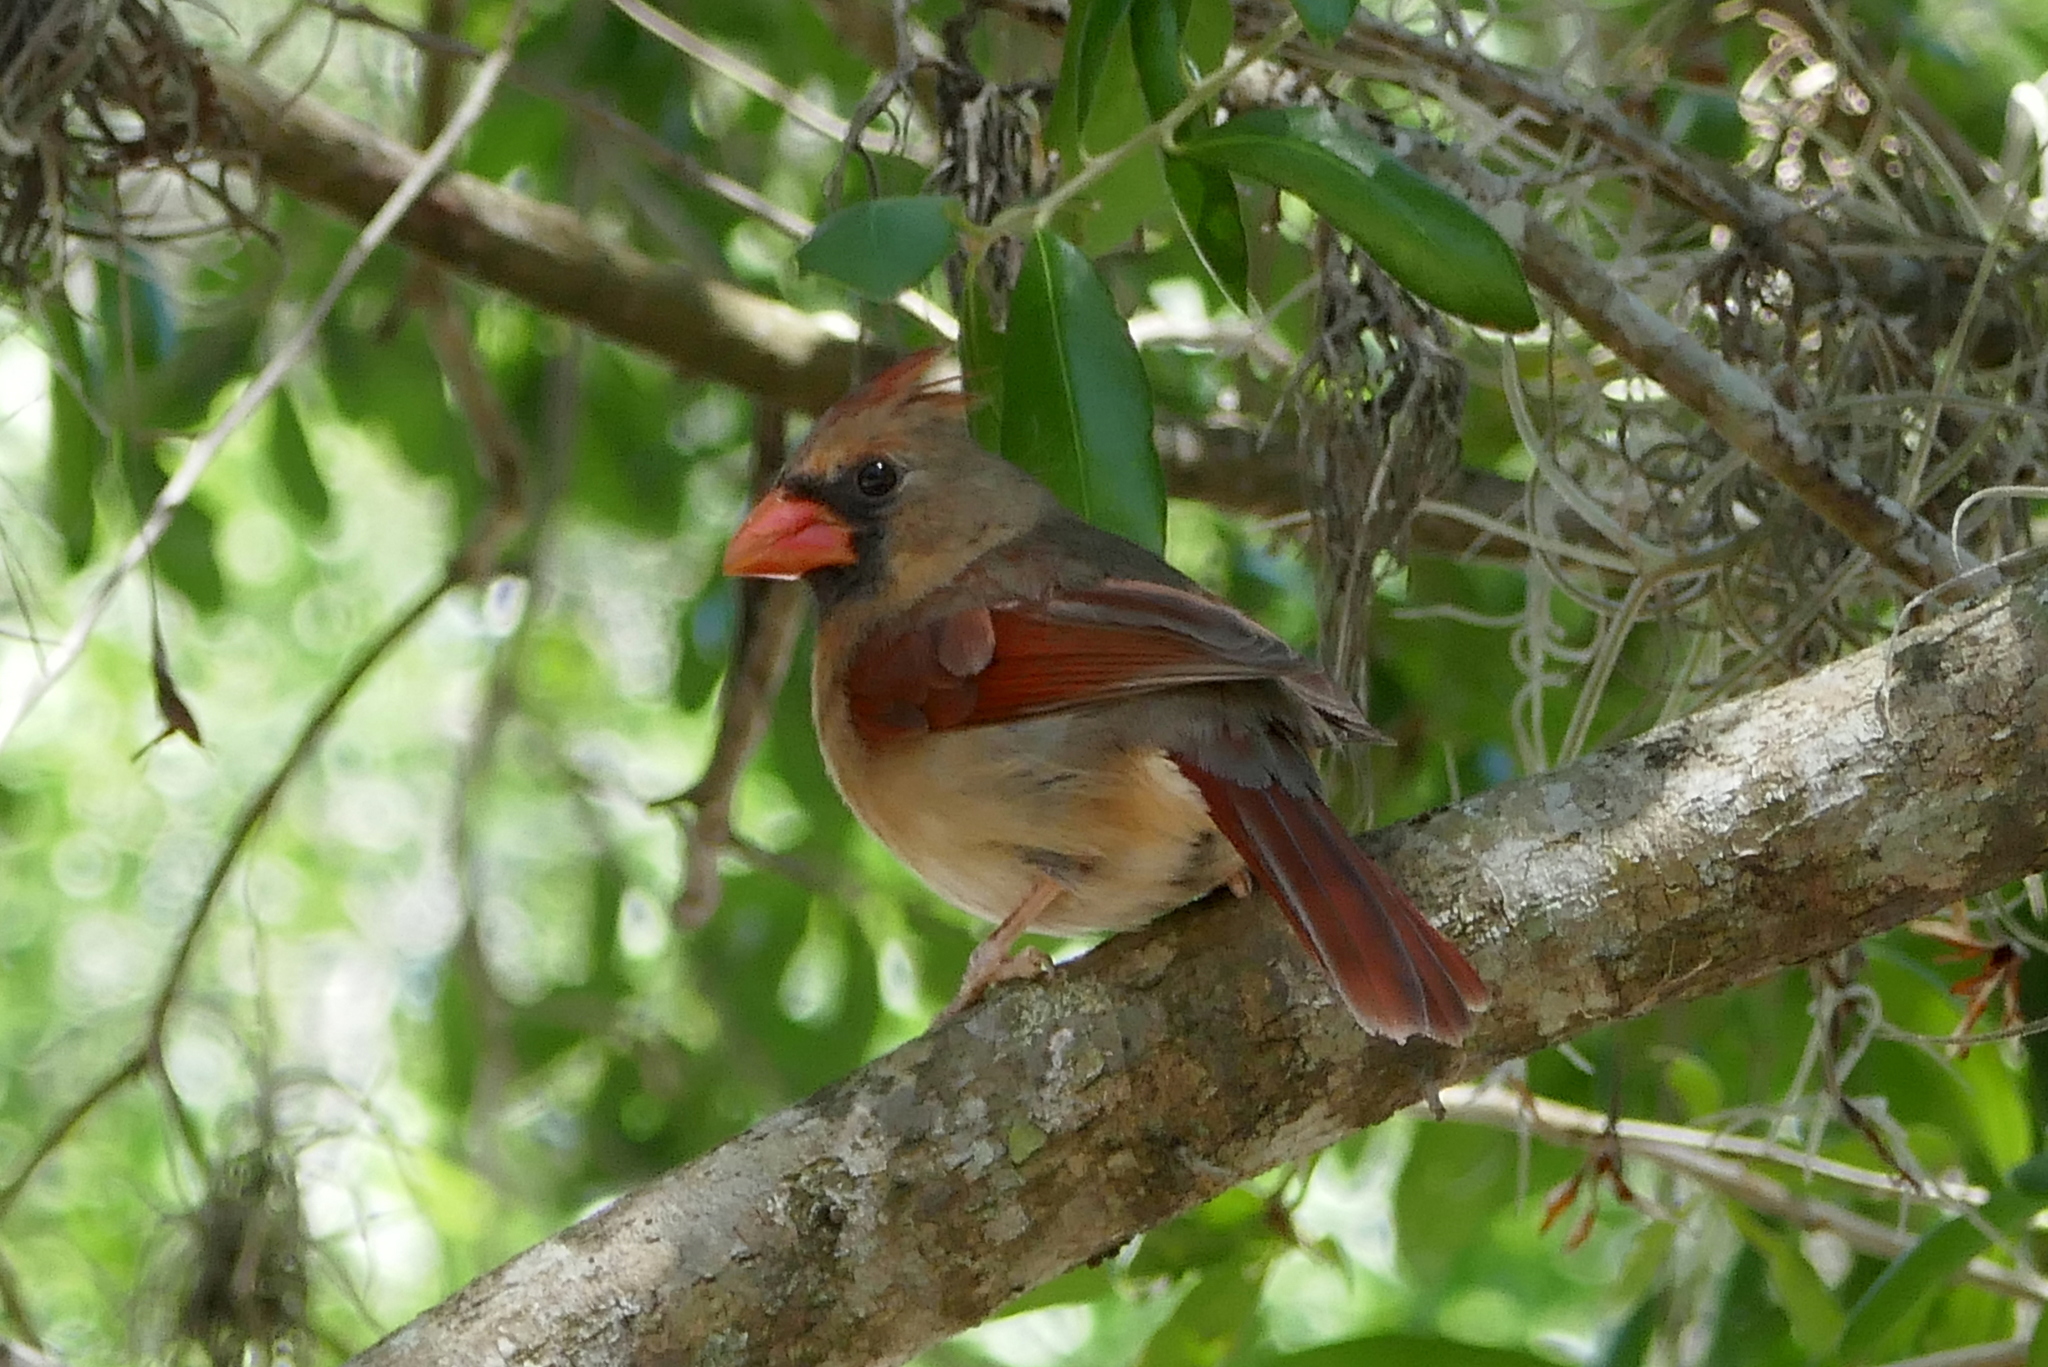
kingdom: Animalia
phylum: Chordata
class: Aves
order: Passeriformes
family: Cardinalidae
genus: Cardinalis
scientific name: Cardinalis cardinalis
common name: Northern cardinal
